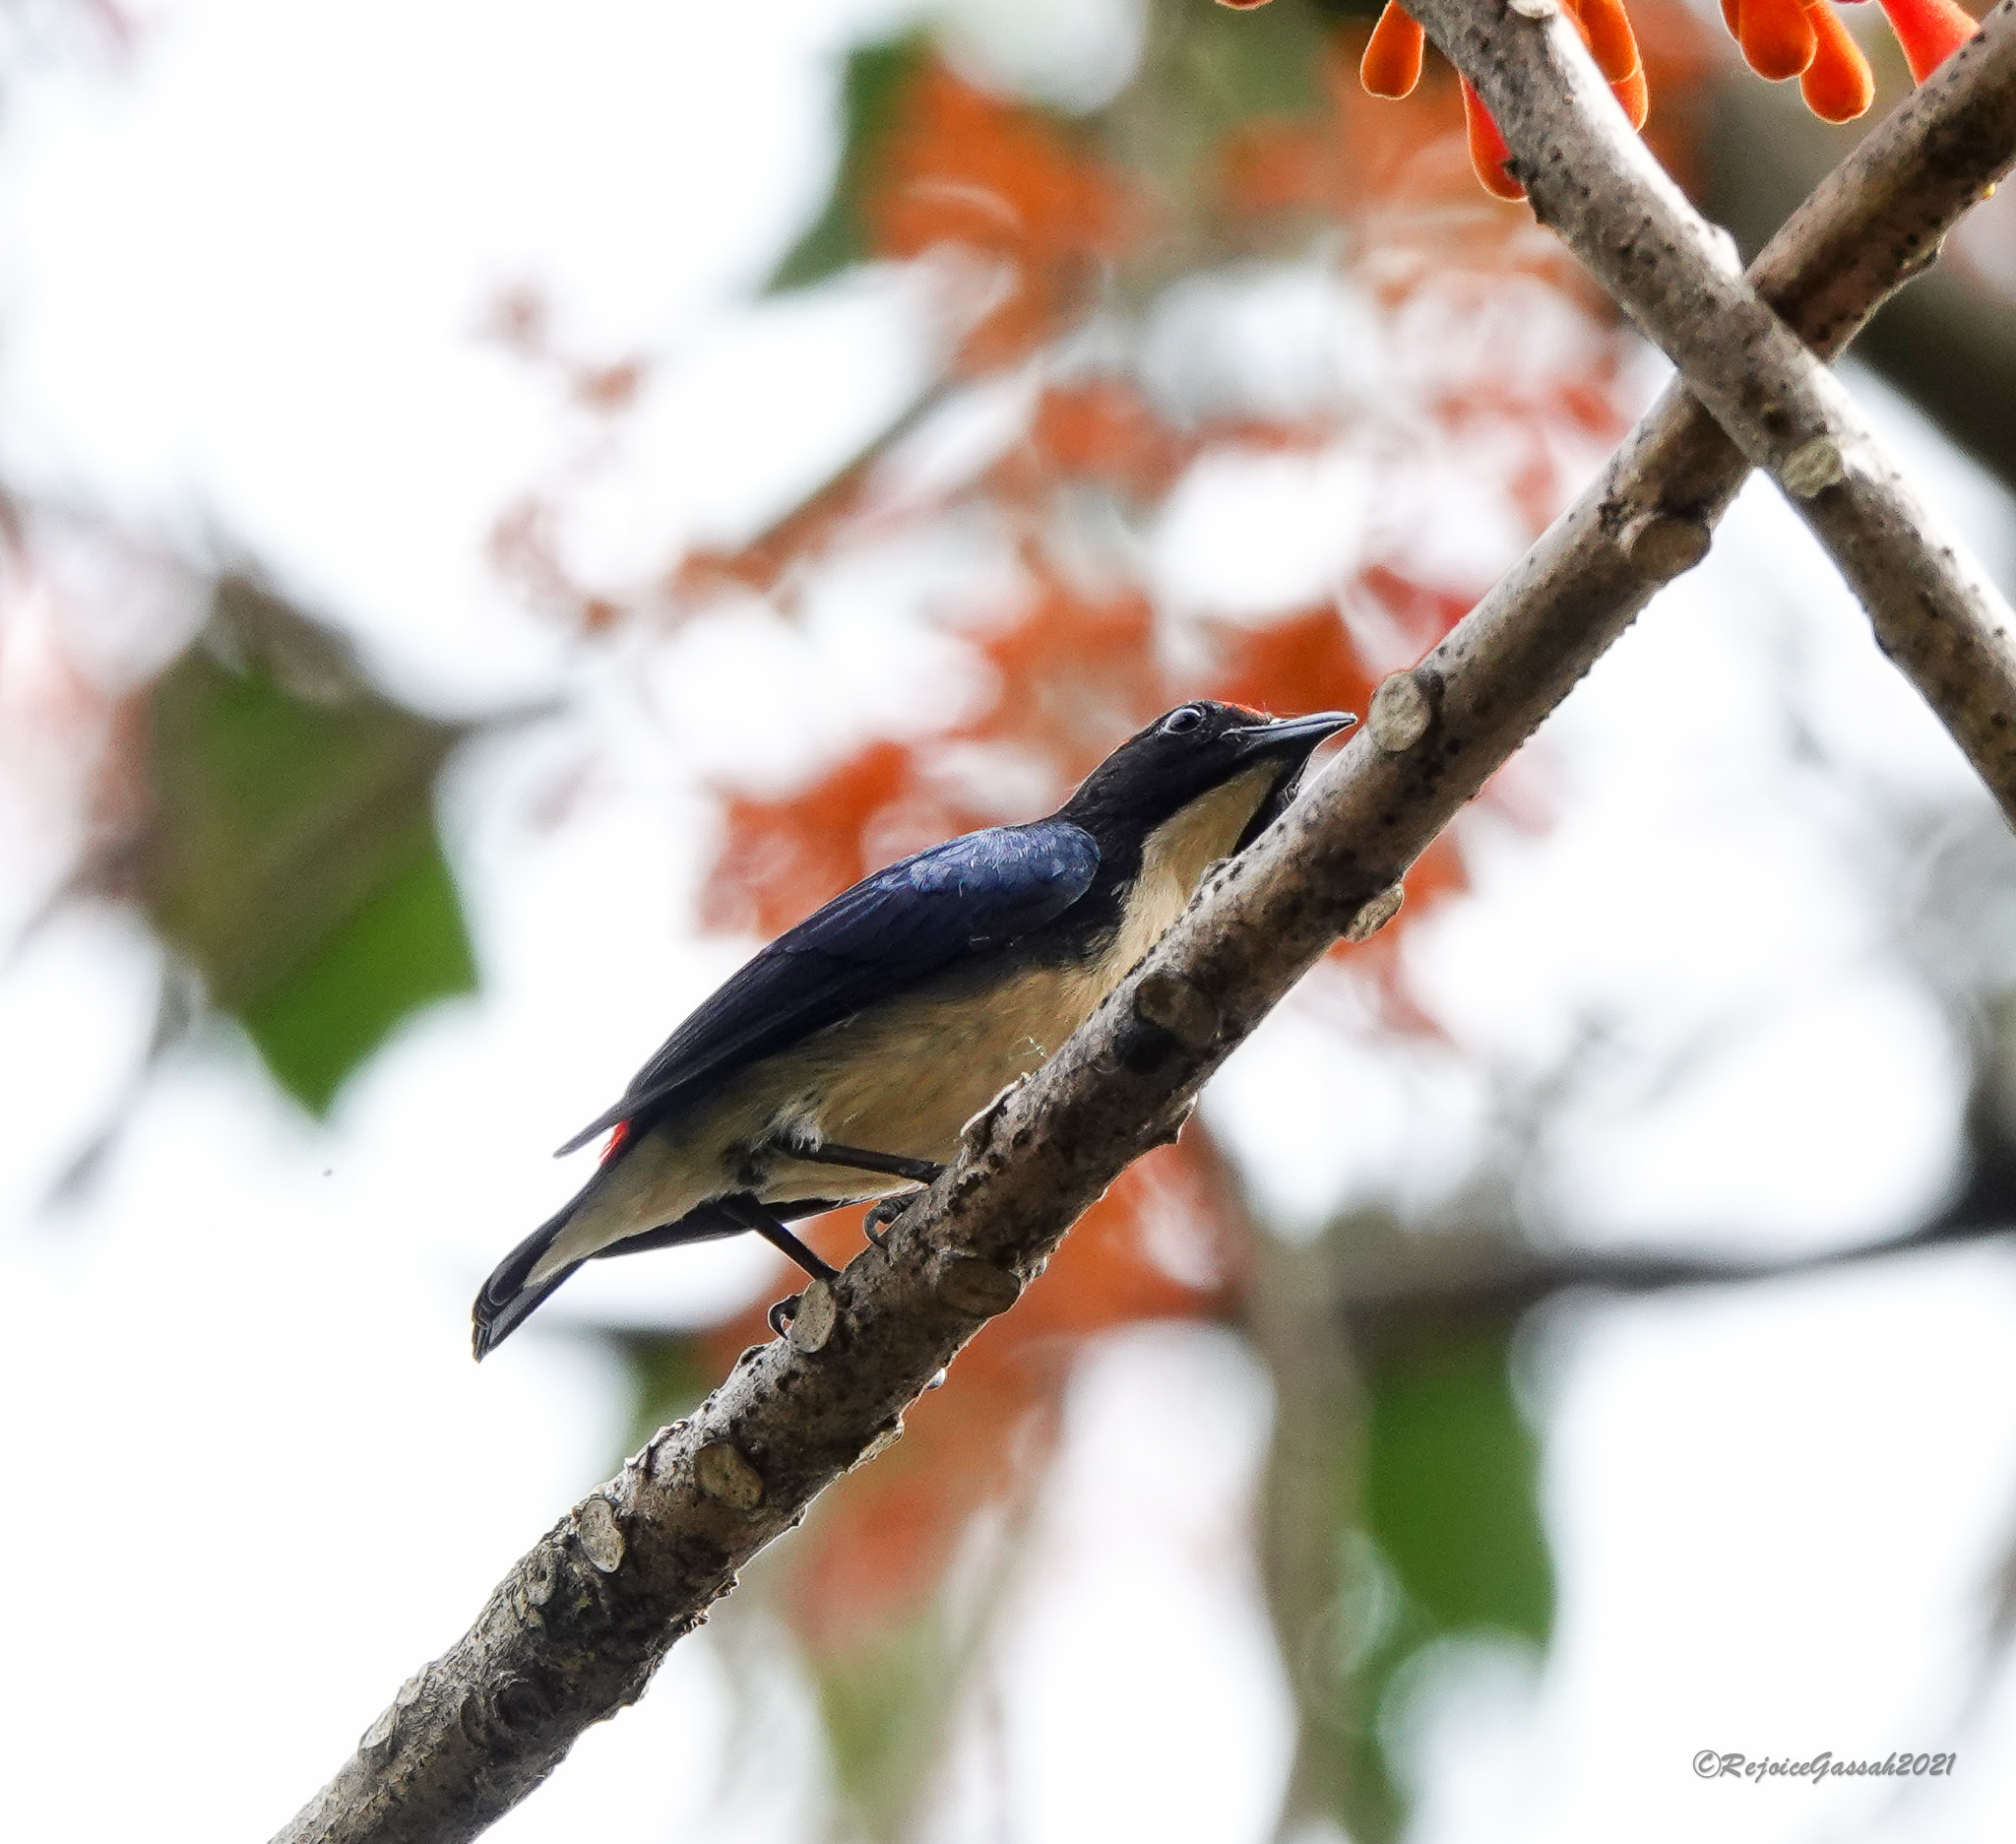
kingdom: Animalia
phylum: Chordata
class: Aves
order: Passeriformes
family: Dicaeidae
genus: Dicaeum
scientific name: Dicaeum cruentatum
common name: Scarlet-backed flowerpecker
